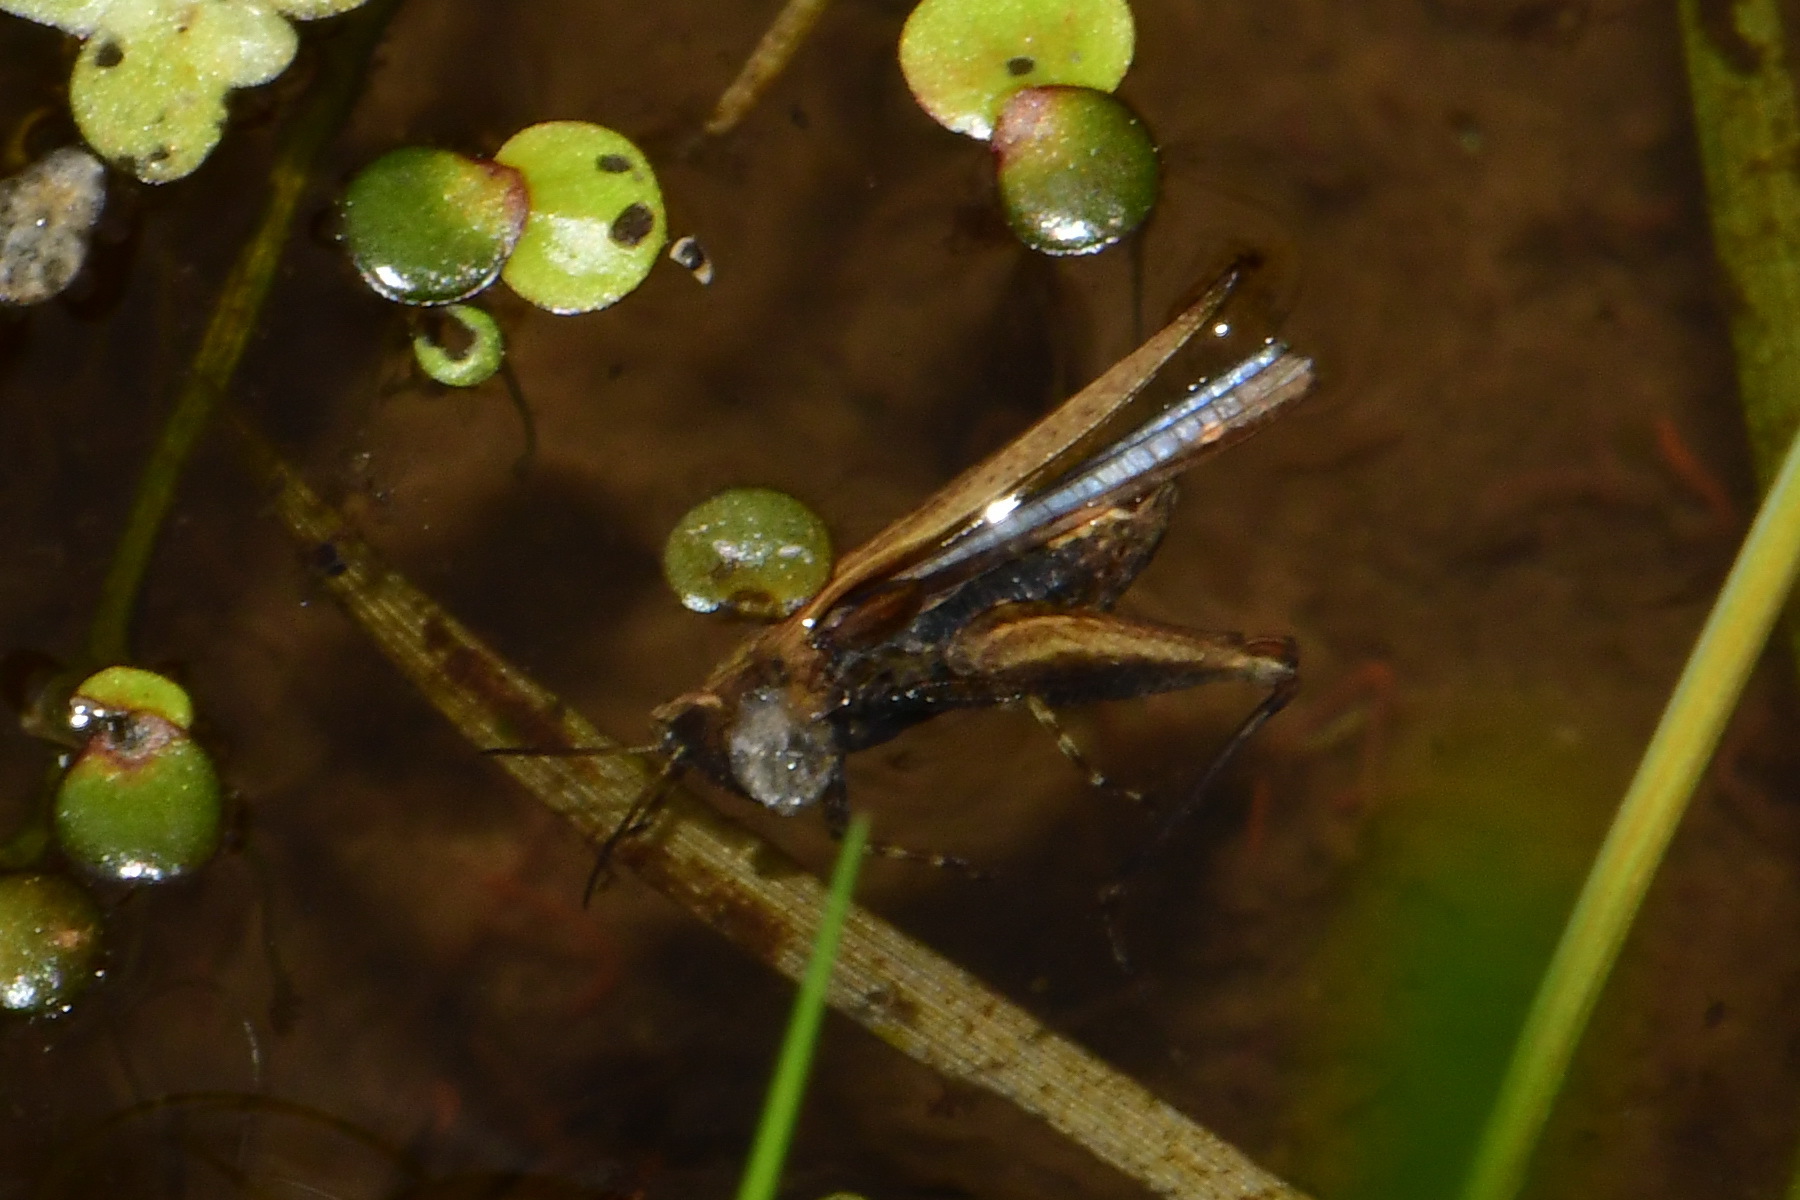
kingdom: Animalia
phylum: Arthropoda
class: Insecta
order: Orthoptera
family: Tetrigidae
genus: Tetrix
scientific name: Tetrix subulata
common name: Slender ground-hopper
